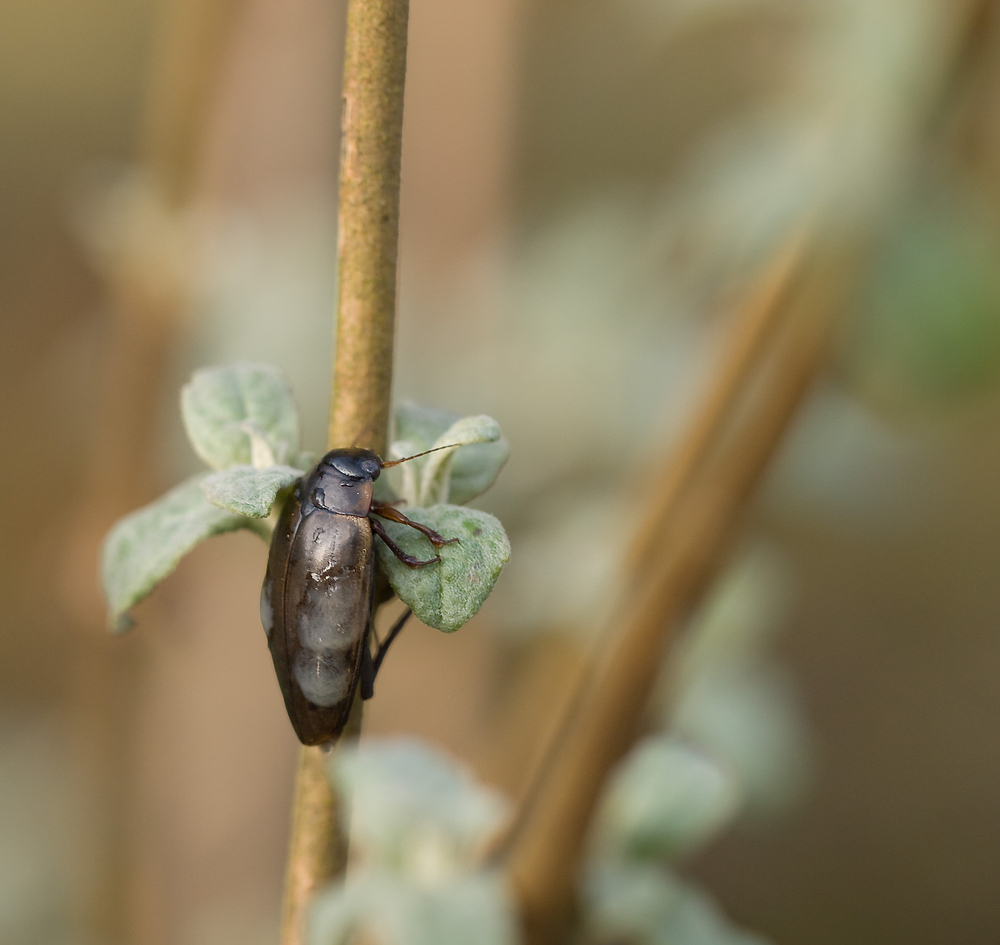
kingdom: Animalia
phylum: Arthropoda
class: Insecta
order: Coleoptera
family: Dytiscidae
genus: Colymbetes
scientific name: Colymbetes fuscus
